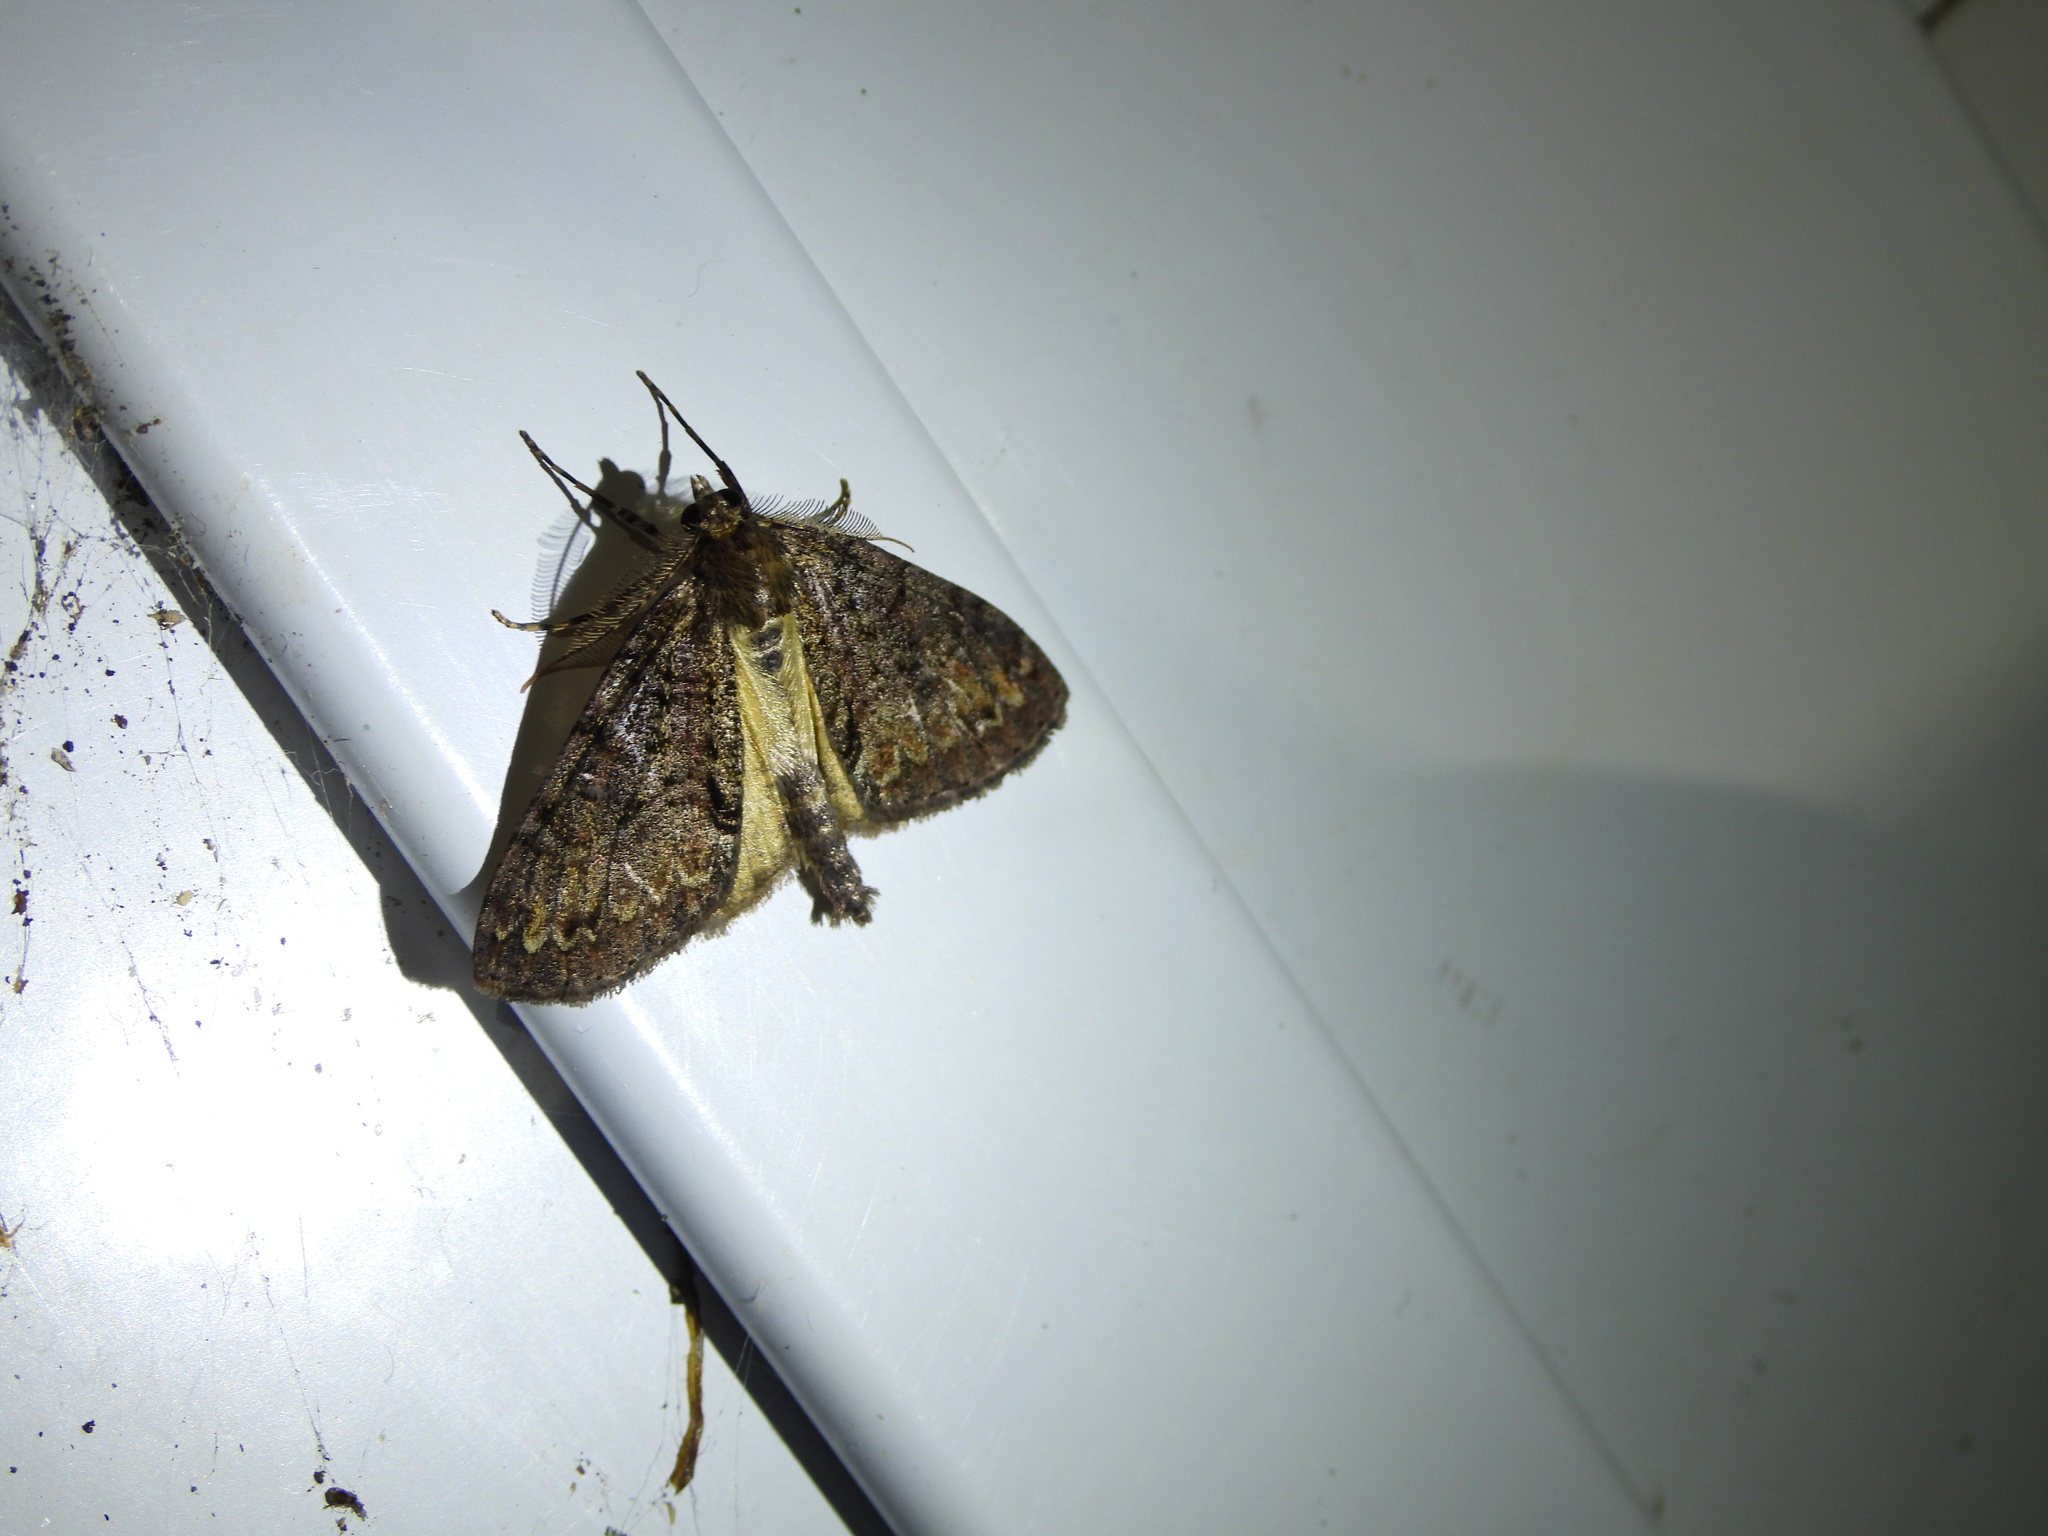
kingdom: Animalia
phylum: Arthropoda
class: Insecta
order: Lepidoptera
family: Geometridae
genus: Pseudocoremia
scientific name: Pseudocoremia suavis
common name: Common forest looper
